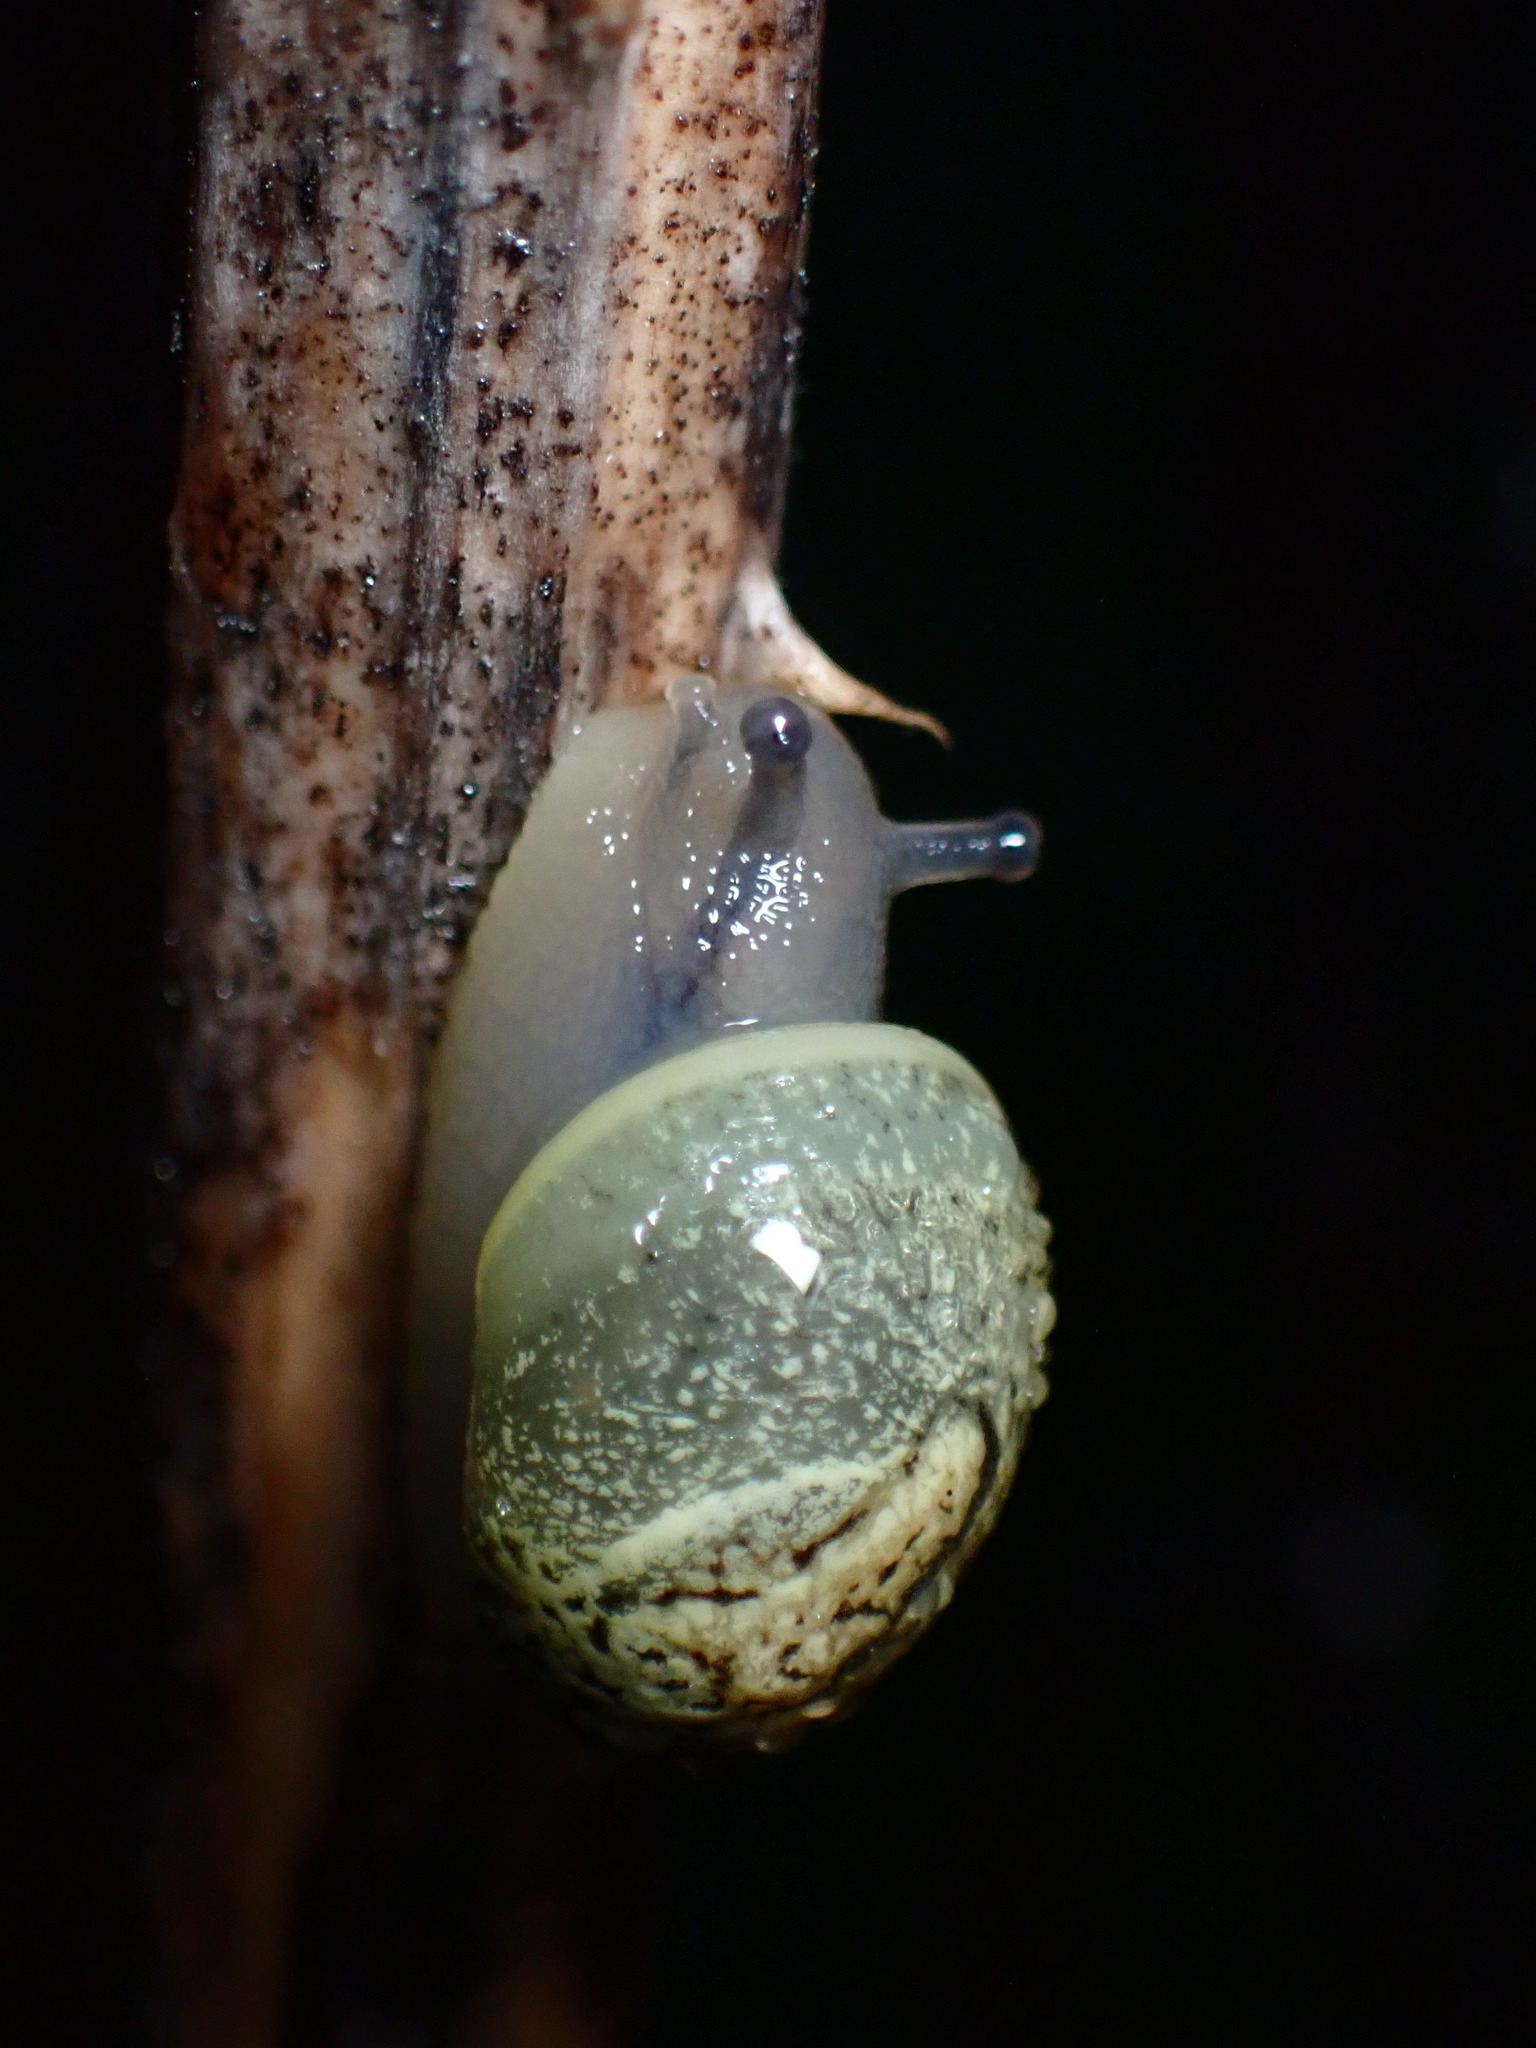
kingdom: Animalia
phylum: Mollusca
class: Gastropoda
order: Stylommatophora
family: Helicidae
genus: Cantareus
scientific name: Cantareus apertus
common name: Green gardensnail
